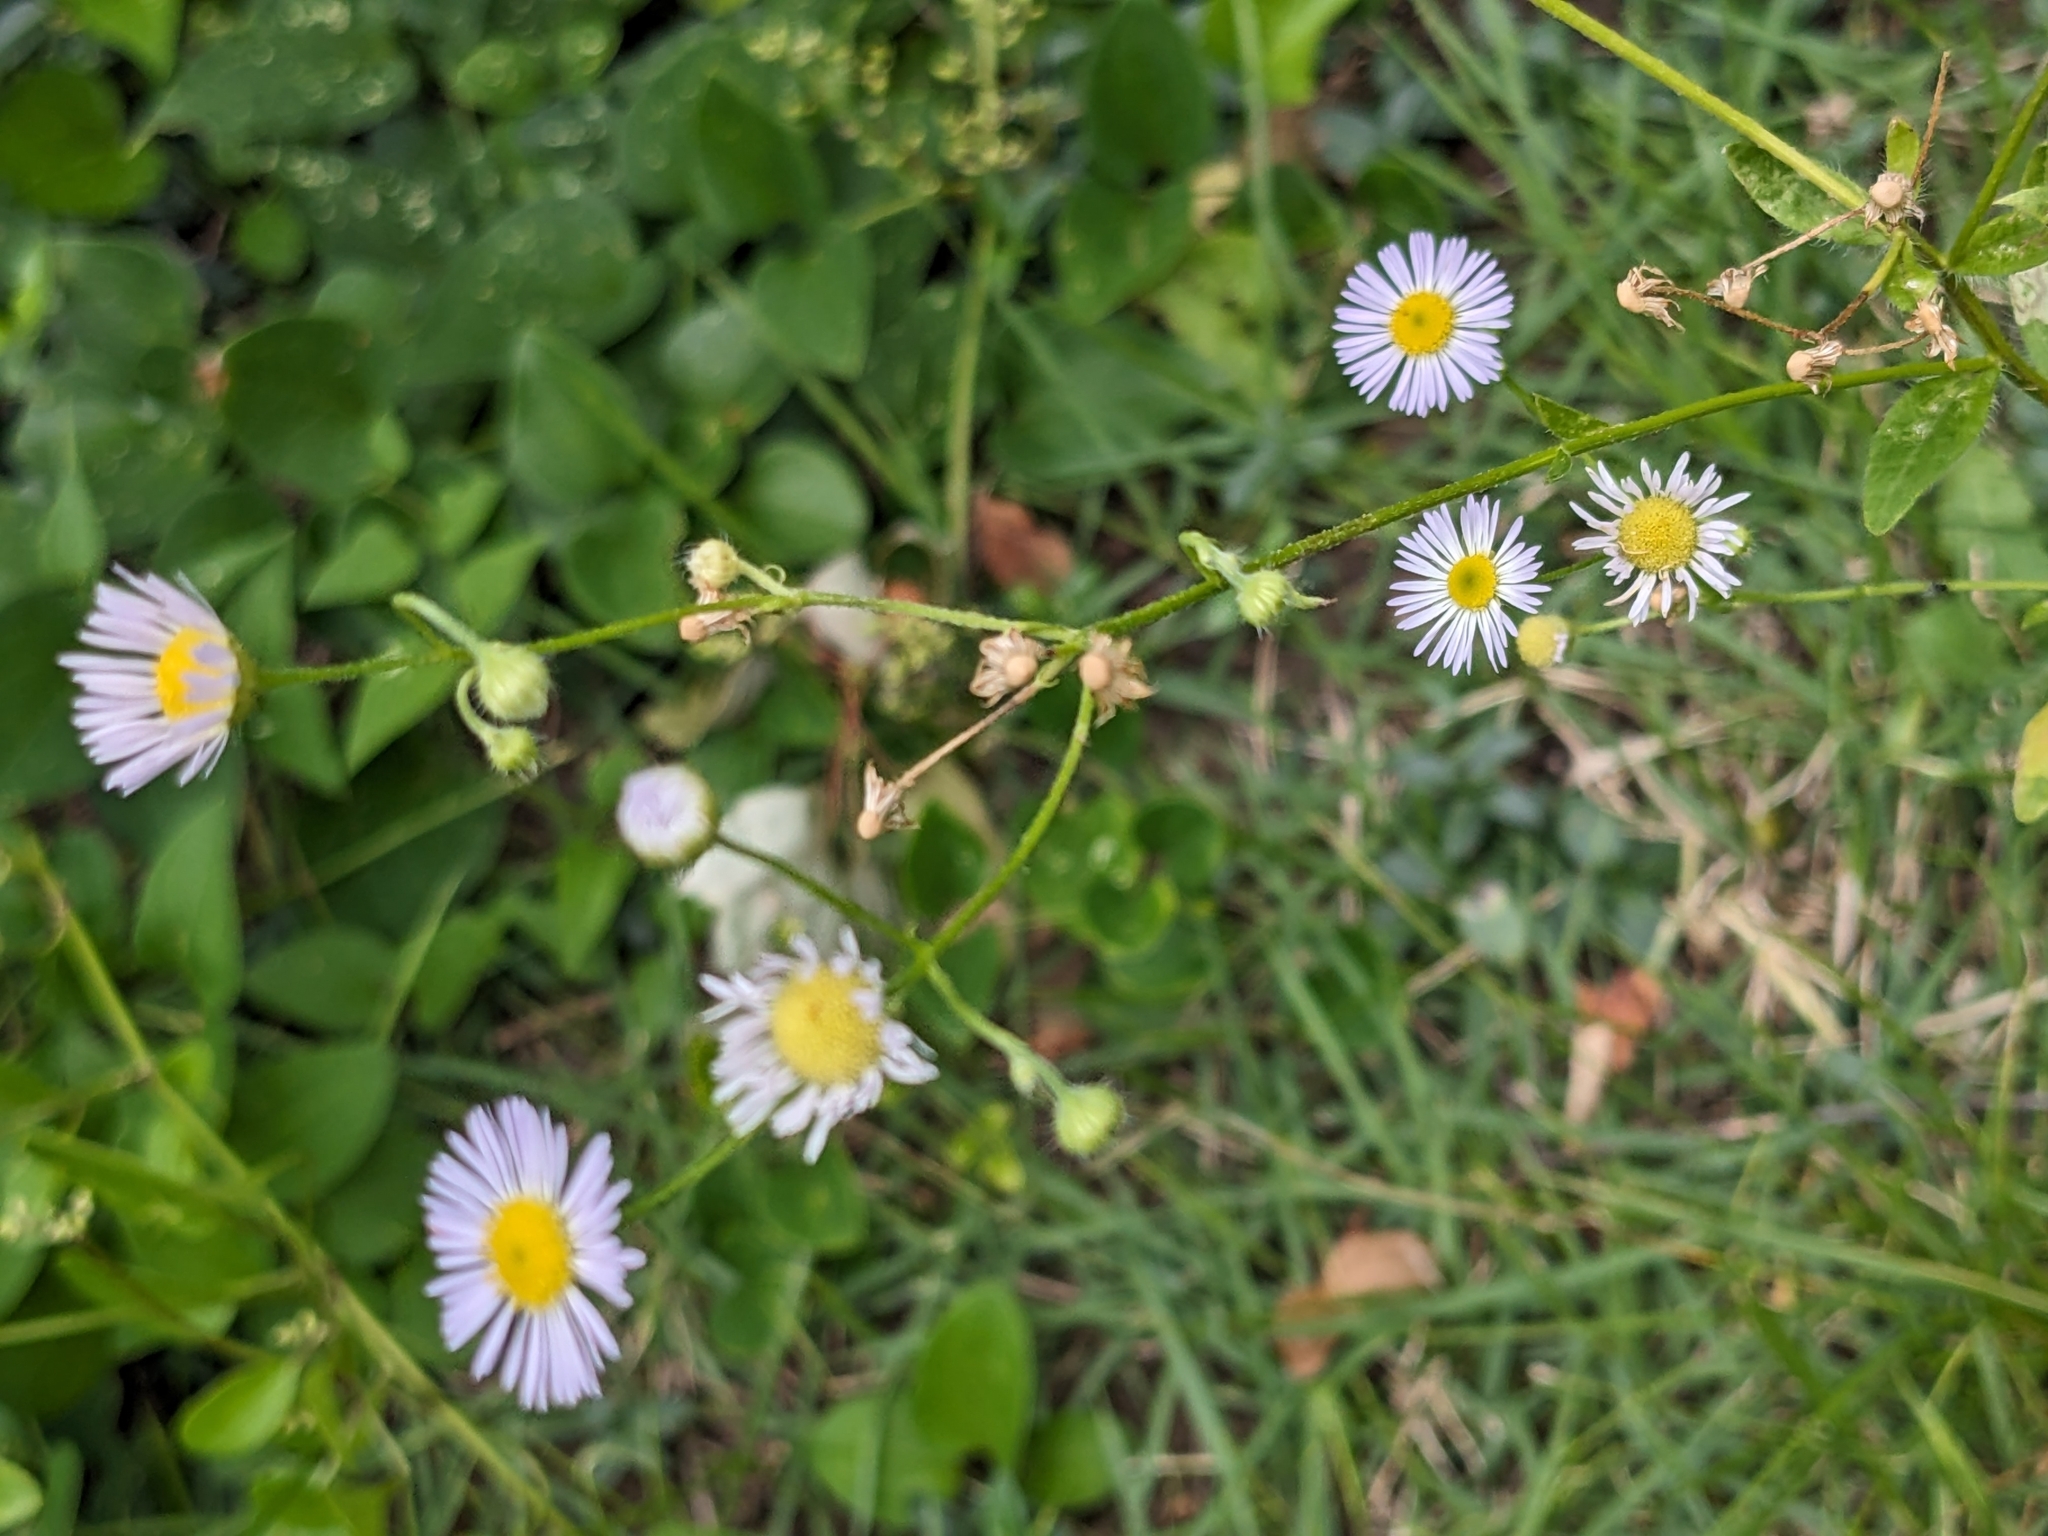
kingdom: Plantae
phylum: Tracheophyta
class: Magnoliopsida
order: Asterales
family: Asteraceae
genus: Erigeron
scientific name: Erigeron strigosus
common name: Common eastern fleabane
